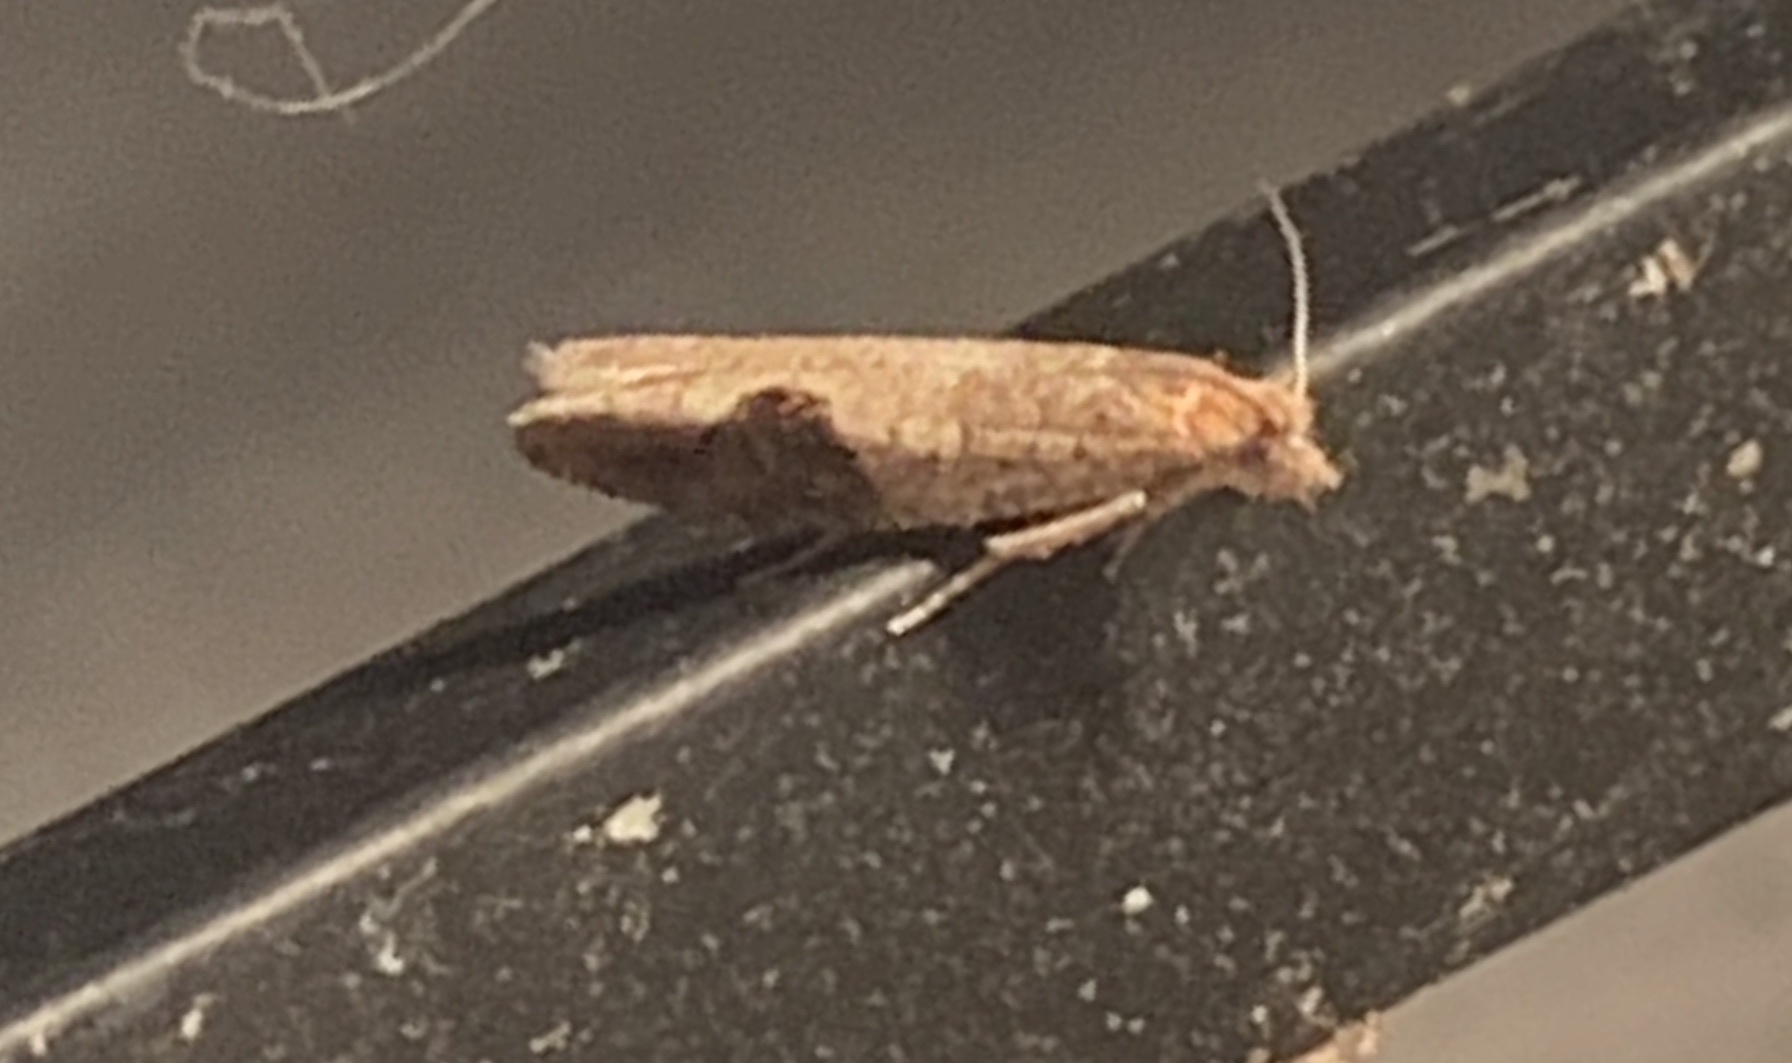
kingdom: Animalia
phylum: Arthropoda
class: Insecta
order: Lepidoptera
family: Tortricidae
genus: Pseudexentera
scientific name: Pseudexentera virginiana
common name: Virginia pseudexentera moth
